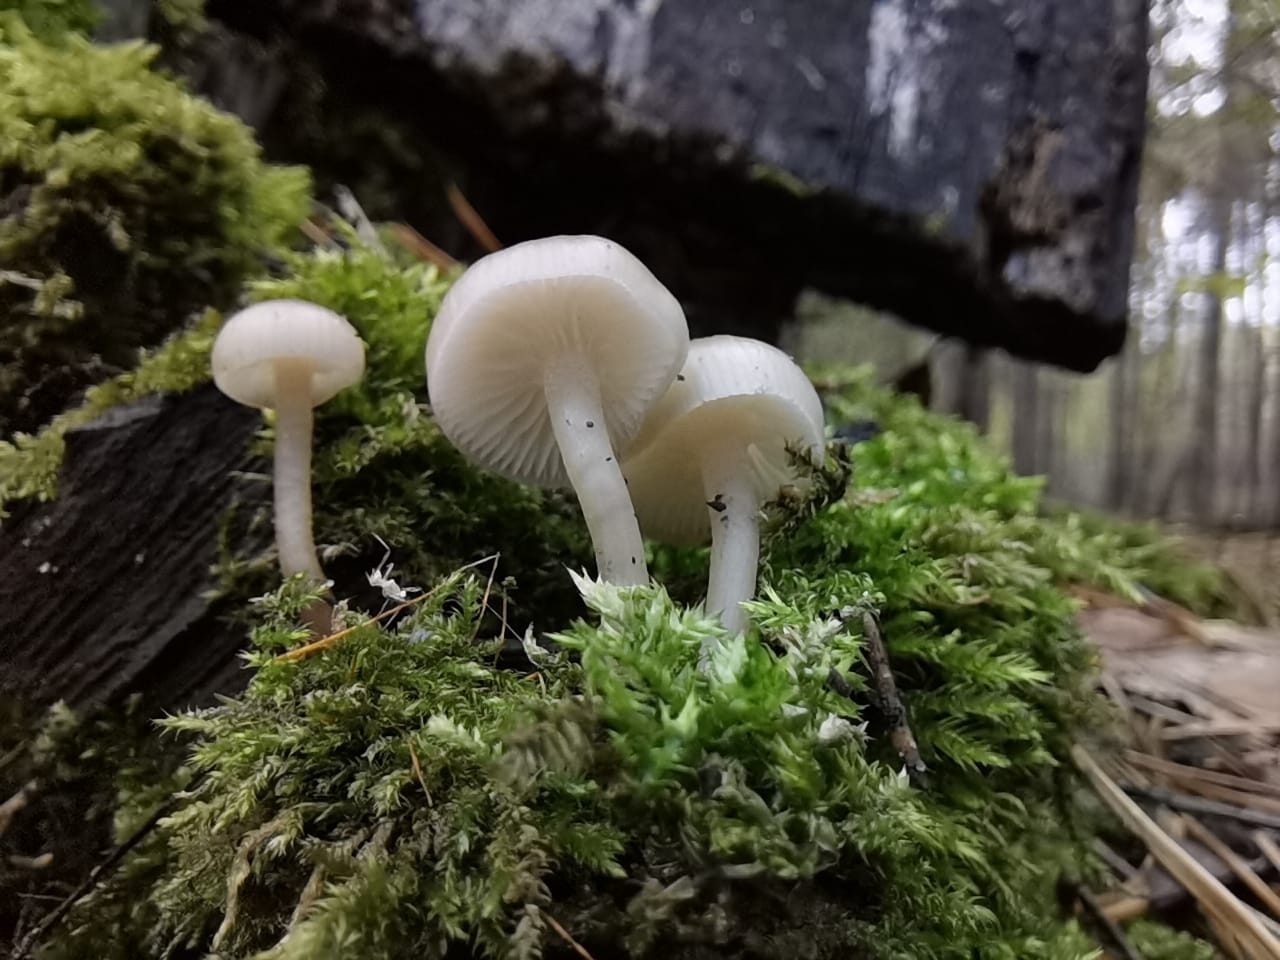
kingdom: Fungi
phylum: Basidiomycota
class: Agaricomycetes
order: Agaricales
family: Mycenaceae
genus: Mycena
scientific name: Mycena galericulata
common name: Bonnet mycena
